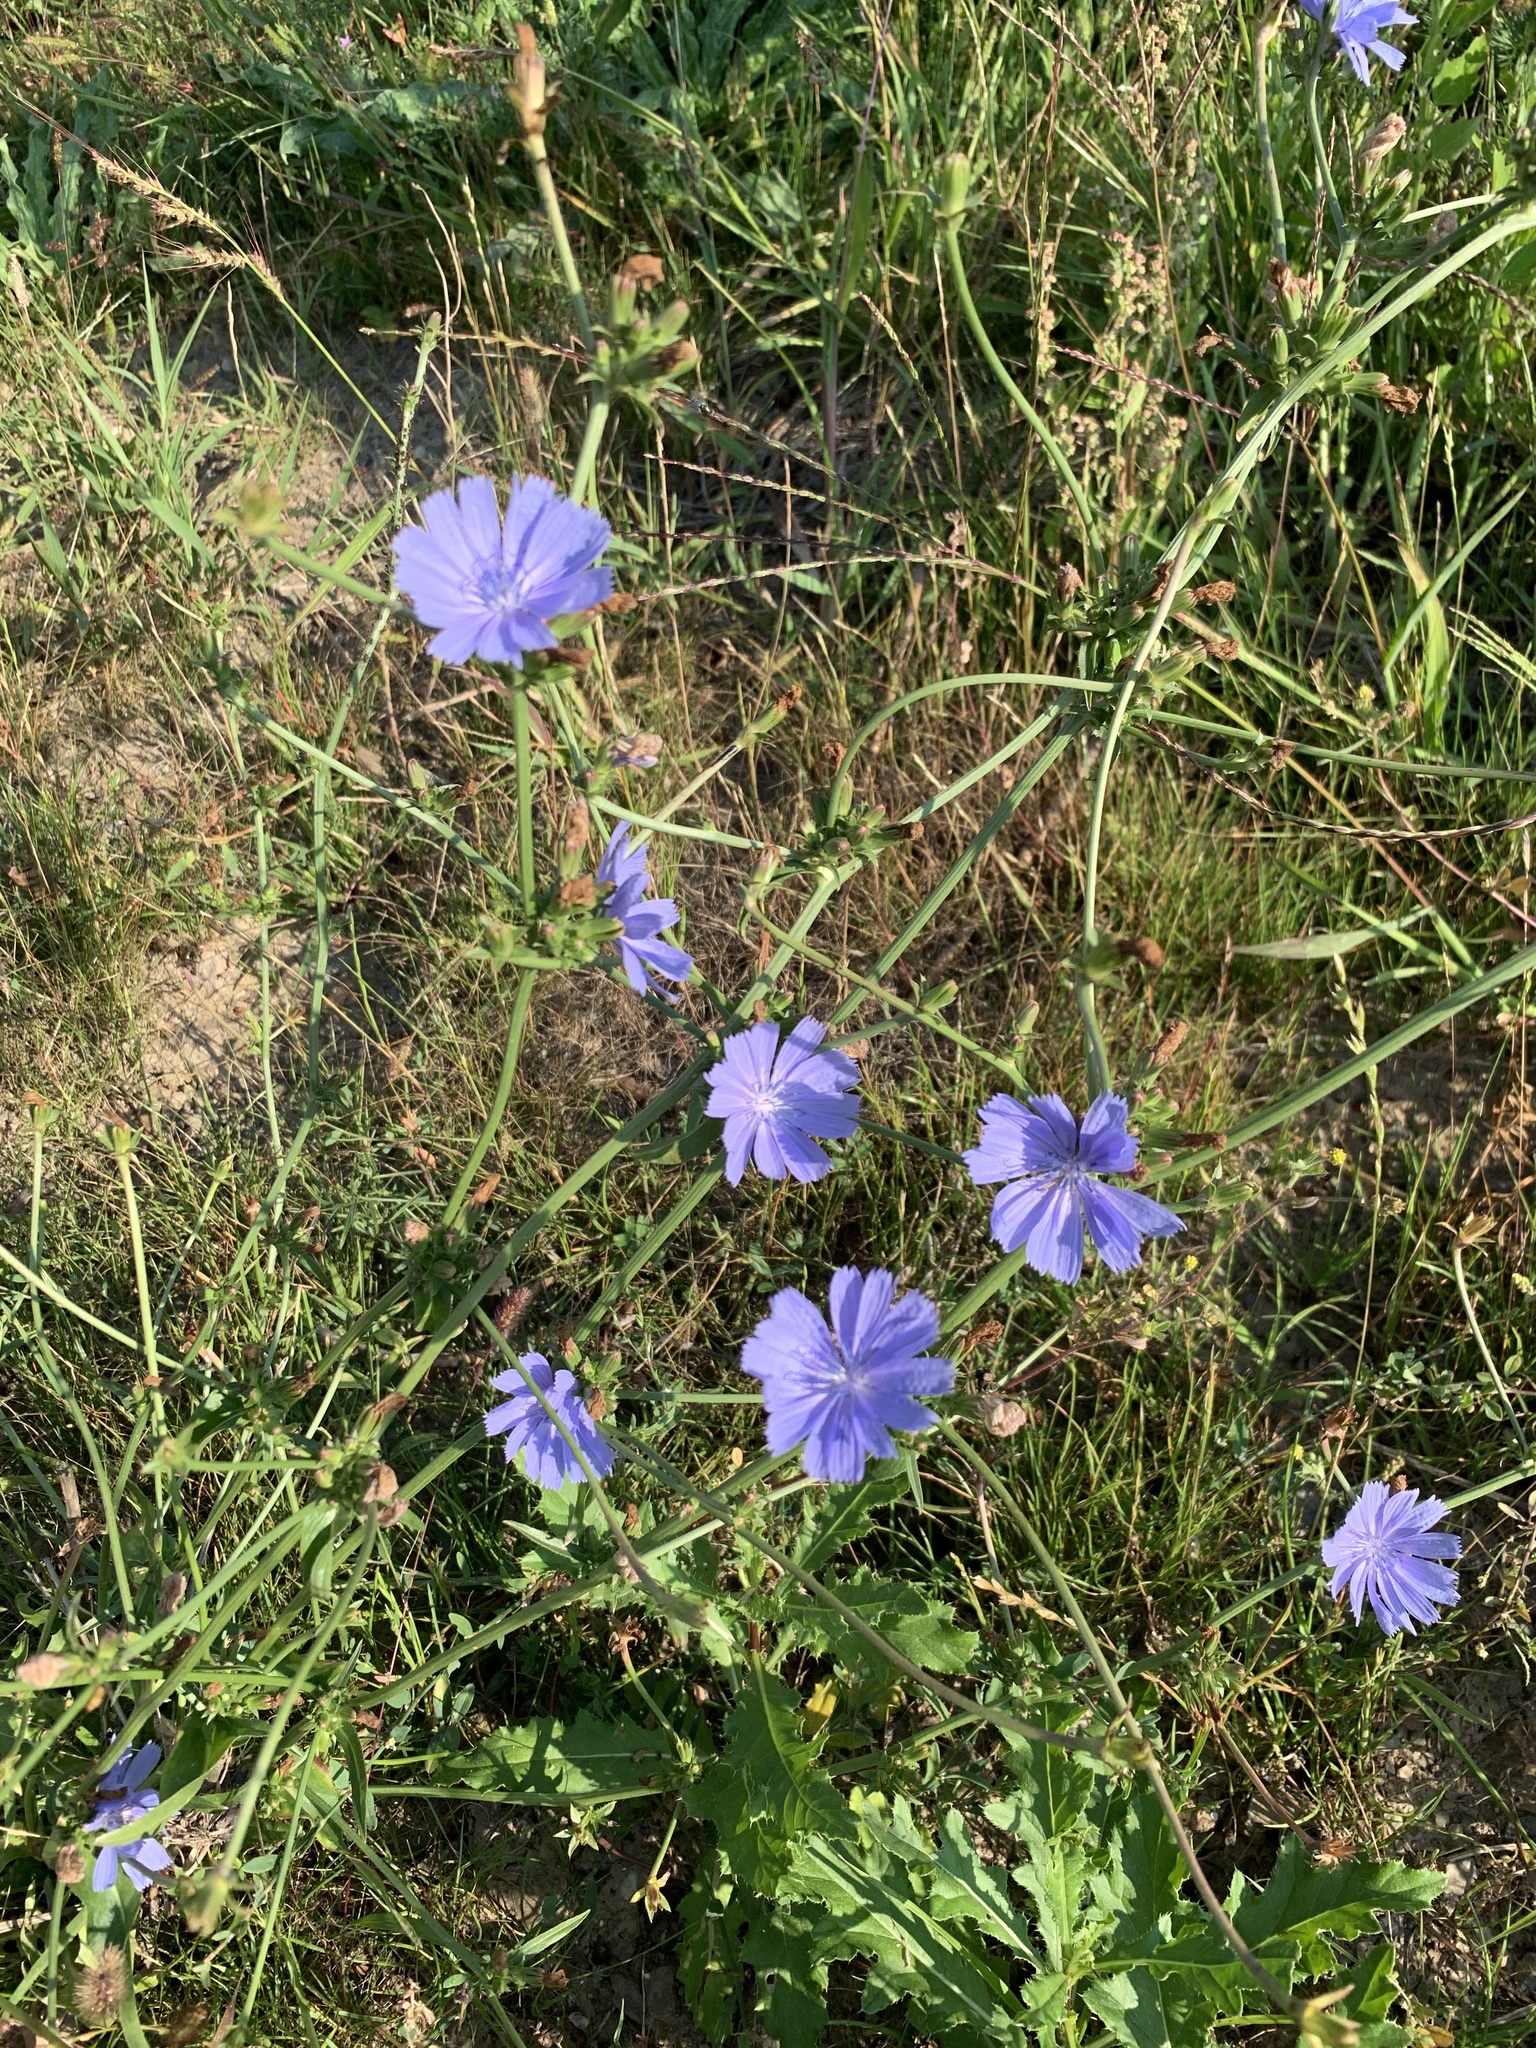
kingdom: Plantae
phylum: Tracheophyta
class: Magnoliopsida
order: Asterales
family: Asteraceae
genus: Cichorium
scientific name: Cichorium intybus
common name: Chicory
